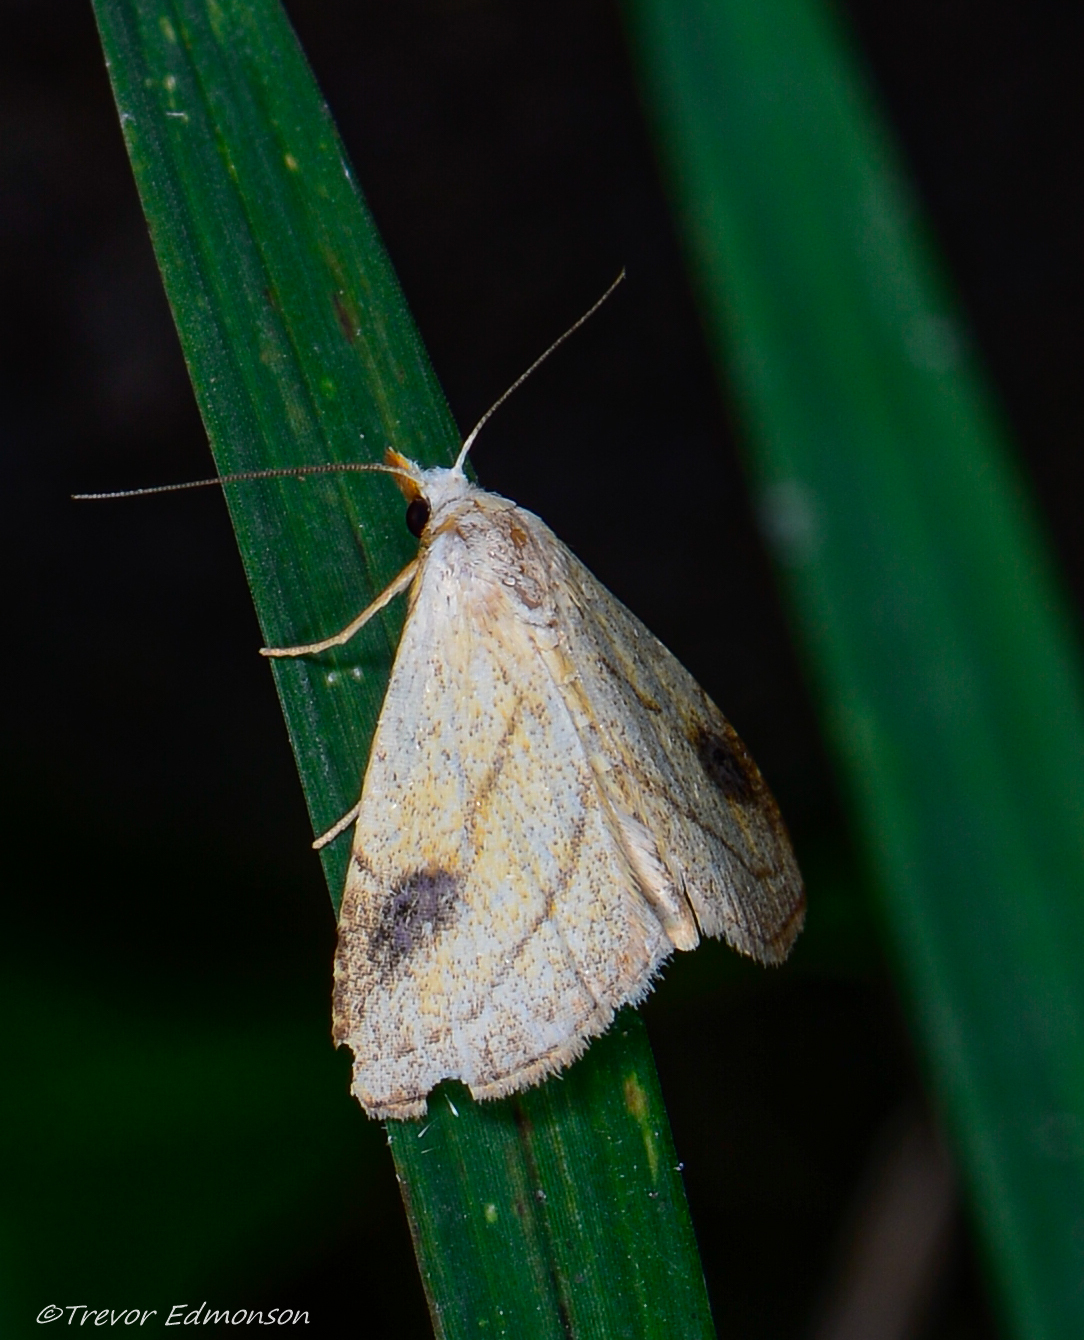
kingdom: Animalia
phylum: Arthropoda
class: Insecta
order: Lepidoptera
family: Erebidae
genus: Rivula
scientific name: Rivula propinqualis
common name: Spotted grass moth
